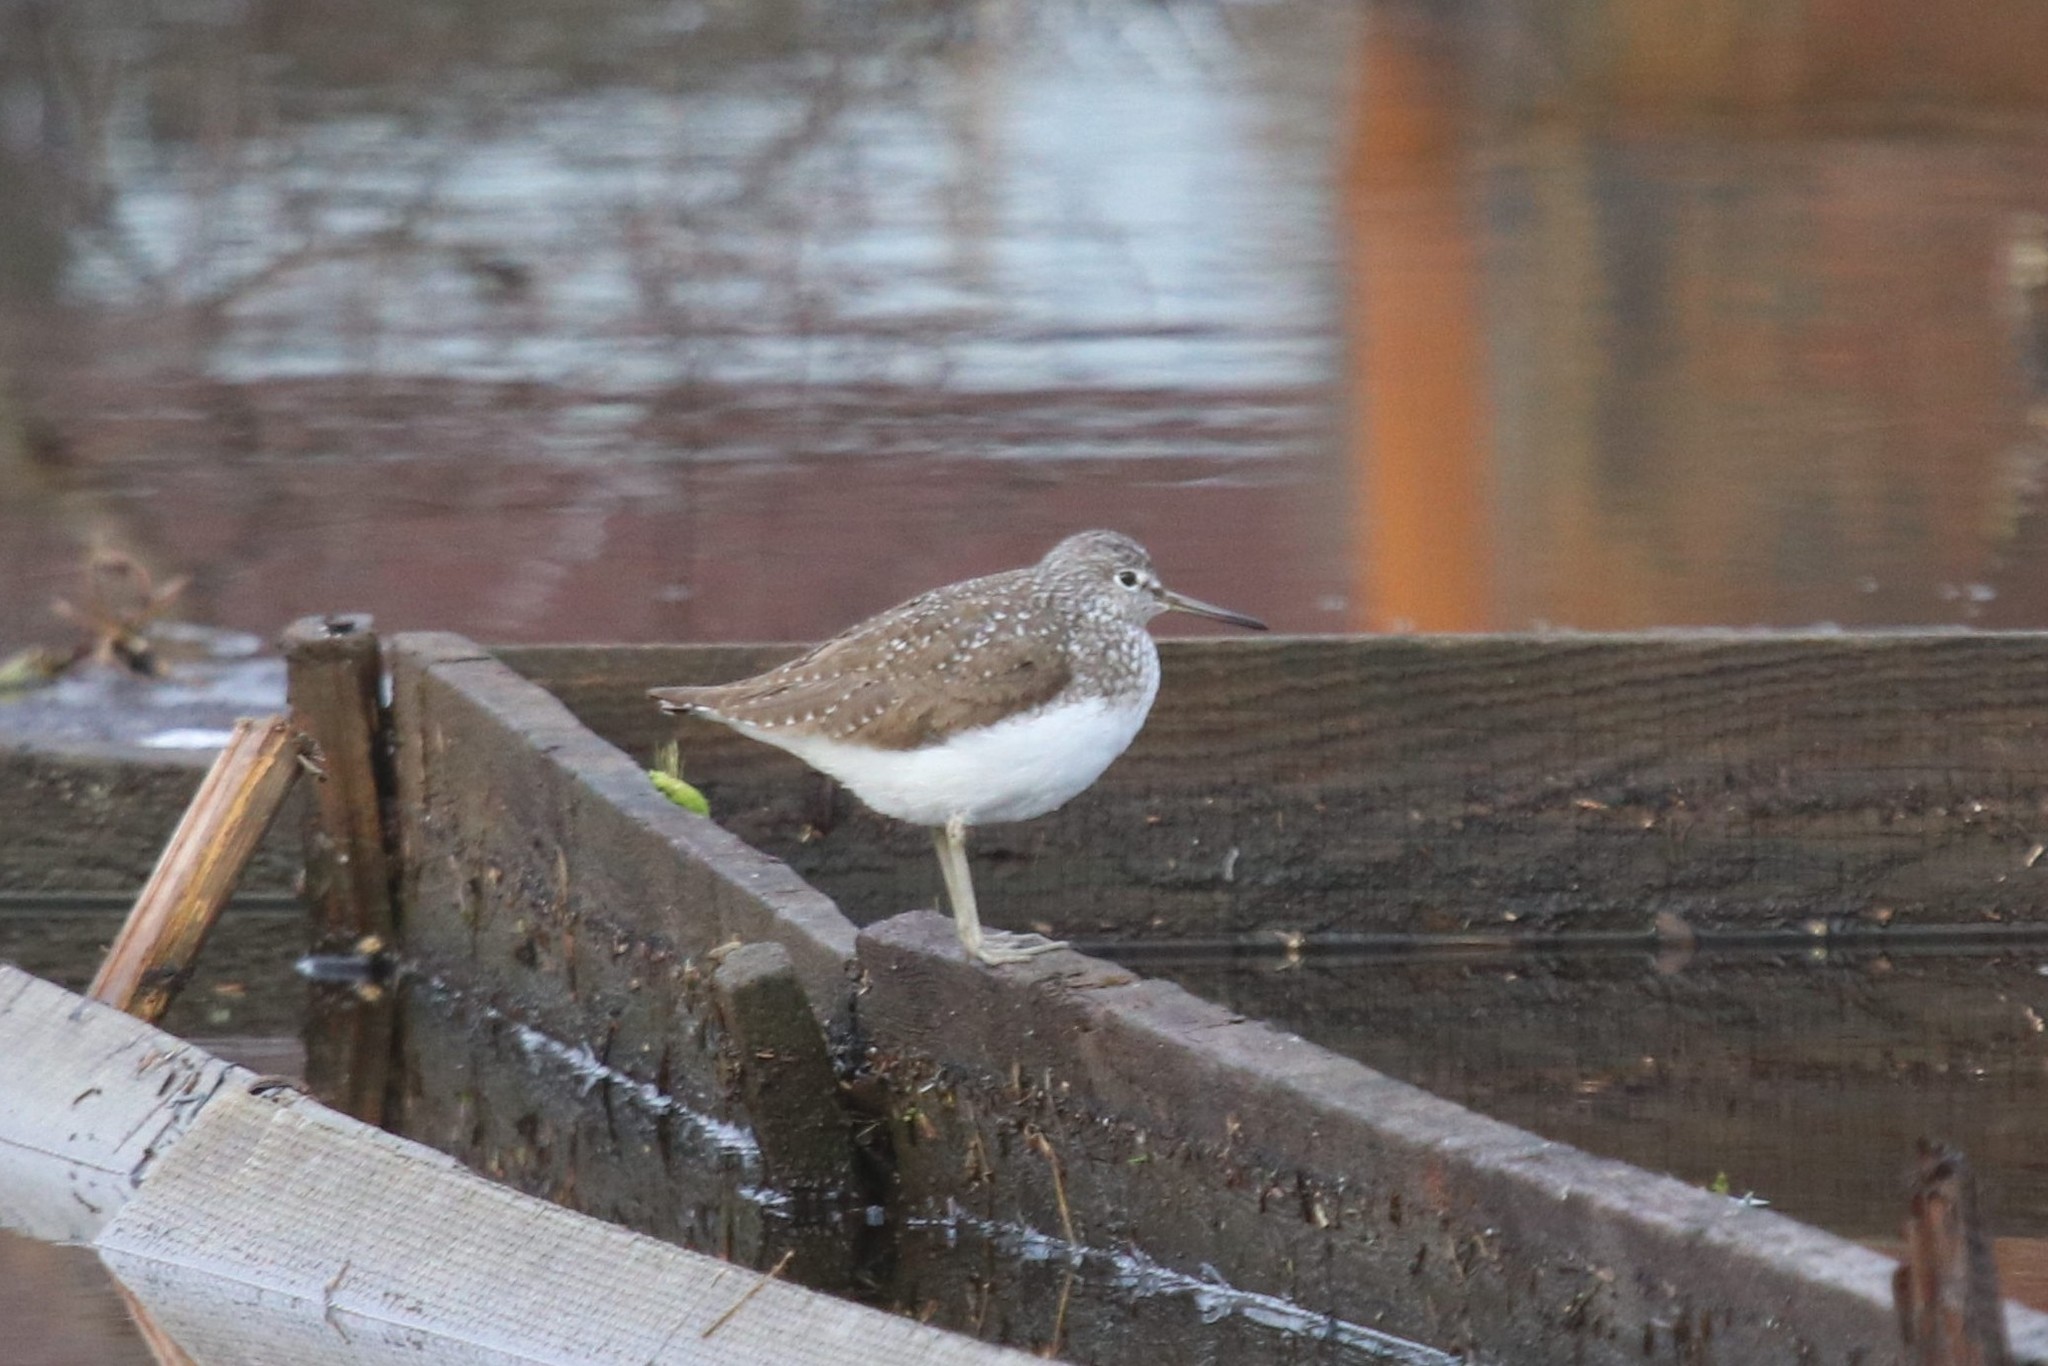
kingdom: Animalia
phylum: Chordata
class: Aves
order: Charadriiformes
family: Scolopacidae
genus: Tringa
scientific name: Tringa ochropus
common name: Green sandpiper
